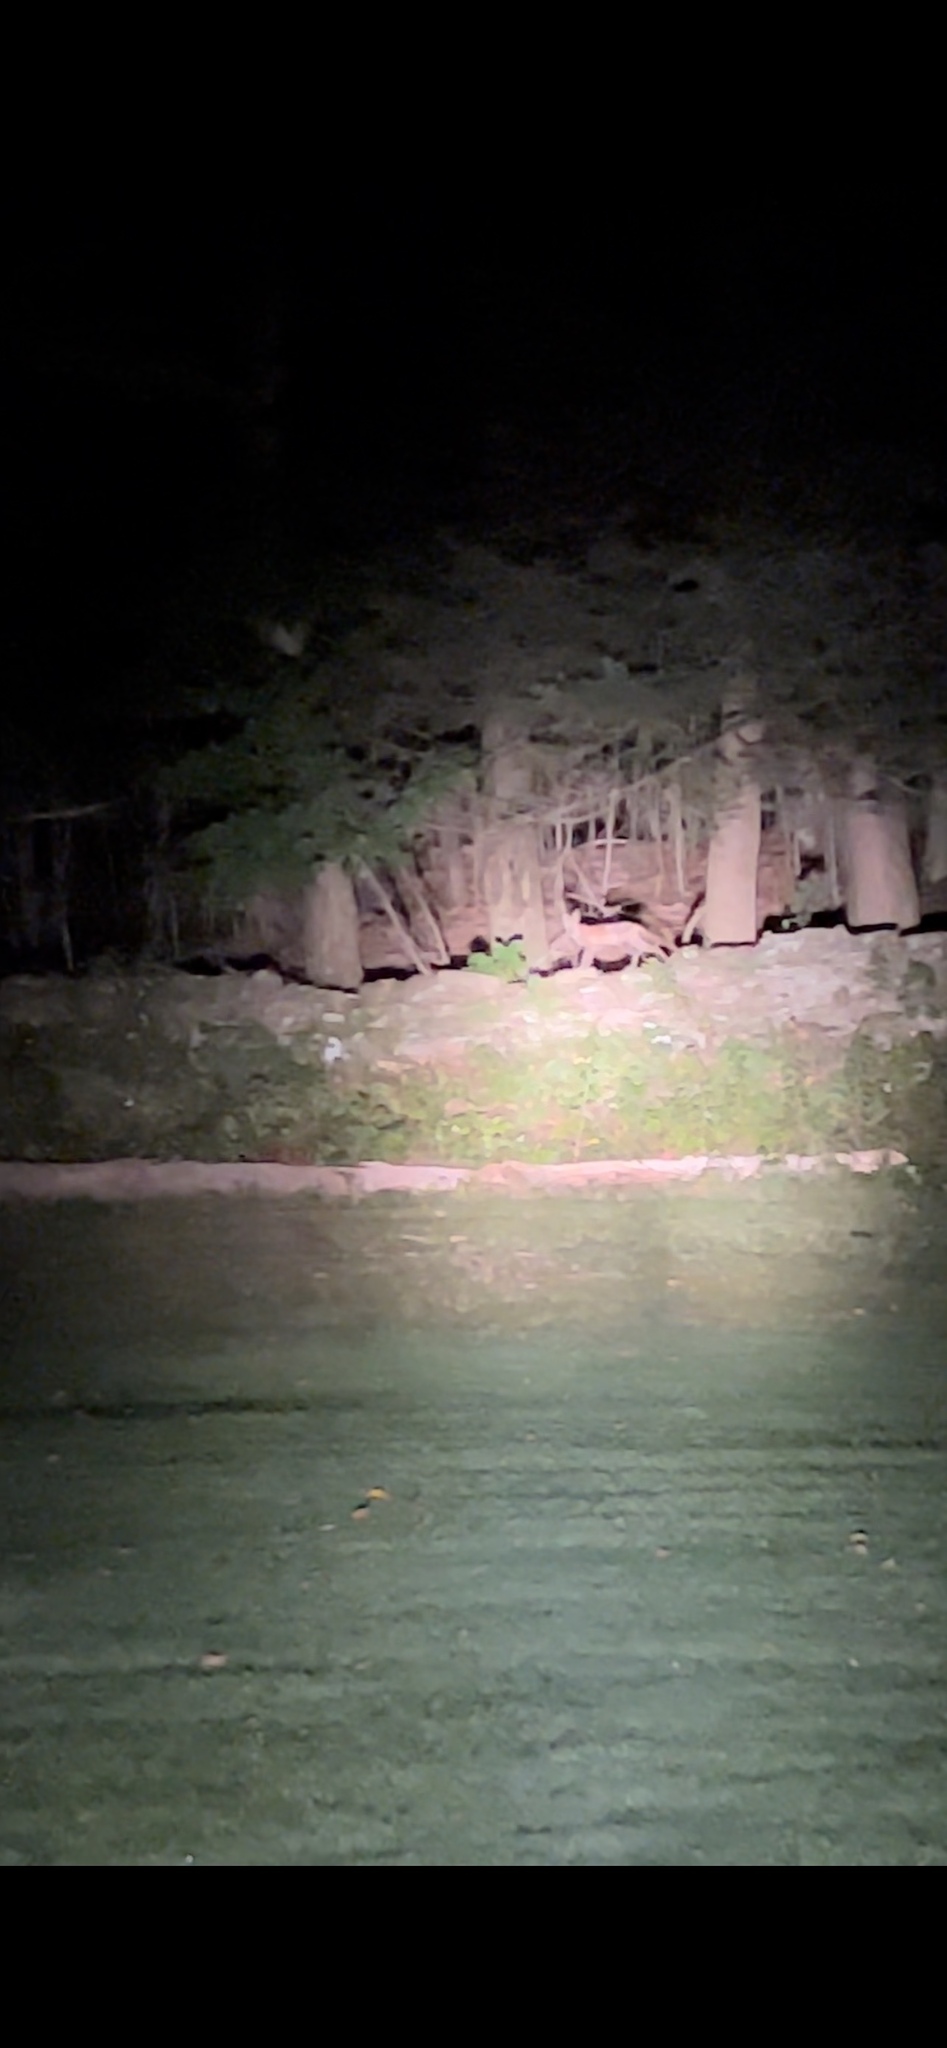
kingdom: Animalia
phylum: Chordata
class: Mammalia
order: Carnivora
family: Canidae
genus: Vulpes
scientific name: Vulpes vulpes
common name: Red fox
